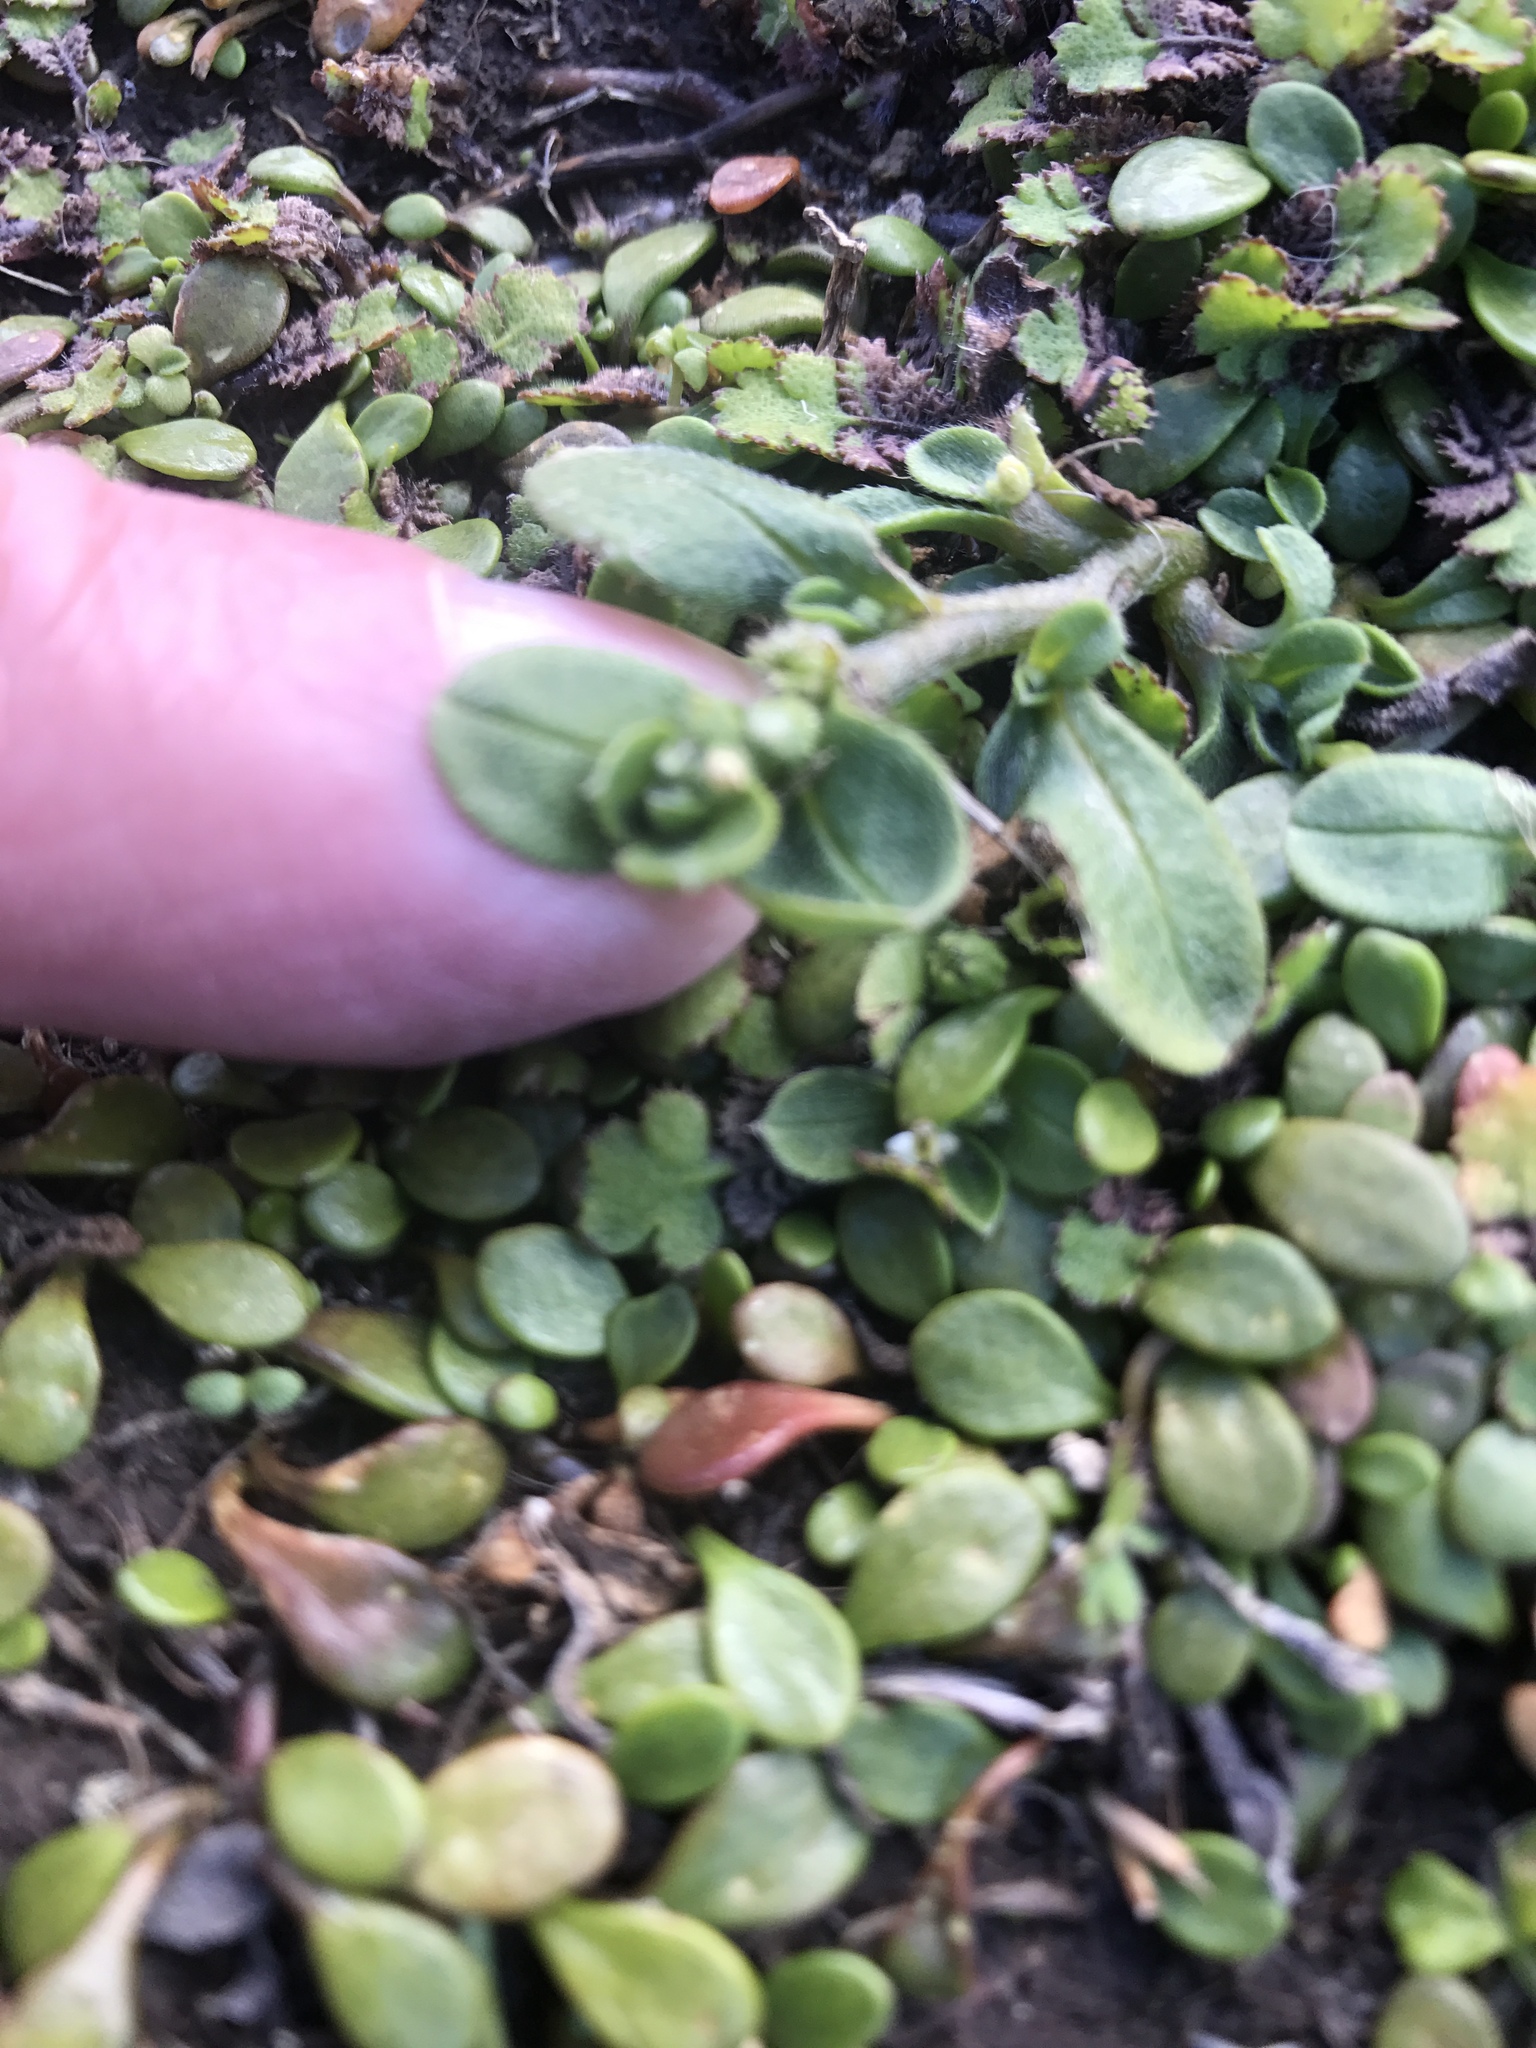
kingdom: Plantae
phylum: Tracheophyta
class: Magnoliopsida
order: Boraginales
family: Boraginaceae
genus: Myosotis
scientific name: Myosotis antarctica
